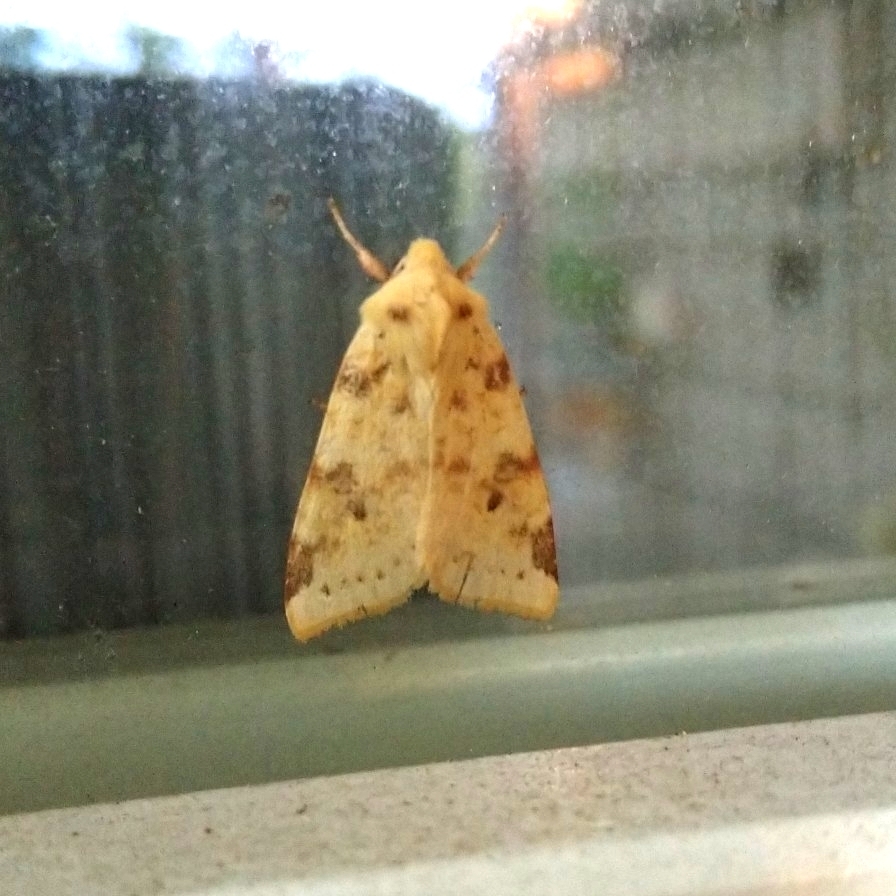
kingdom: Animalia
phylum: Arthropoda
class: Insecta
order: Lepidoptera
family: Noctuidae
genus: Xanthia
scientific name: Xanthia icteritia
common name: The sallow
